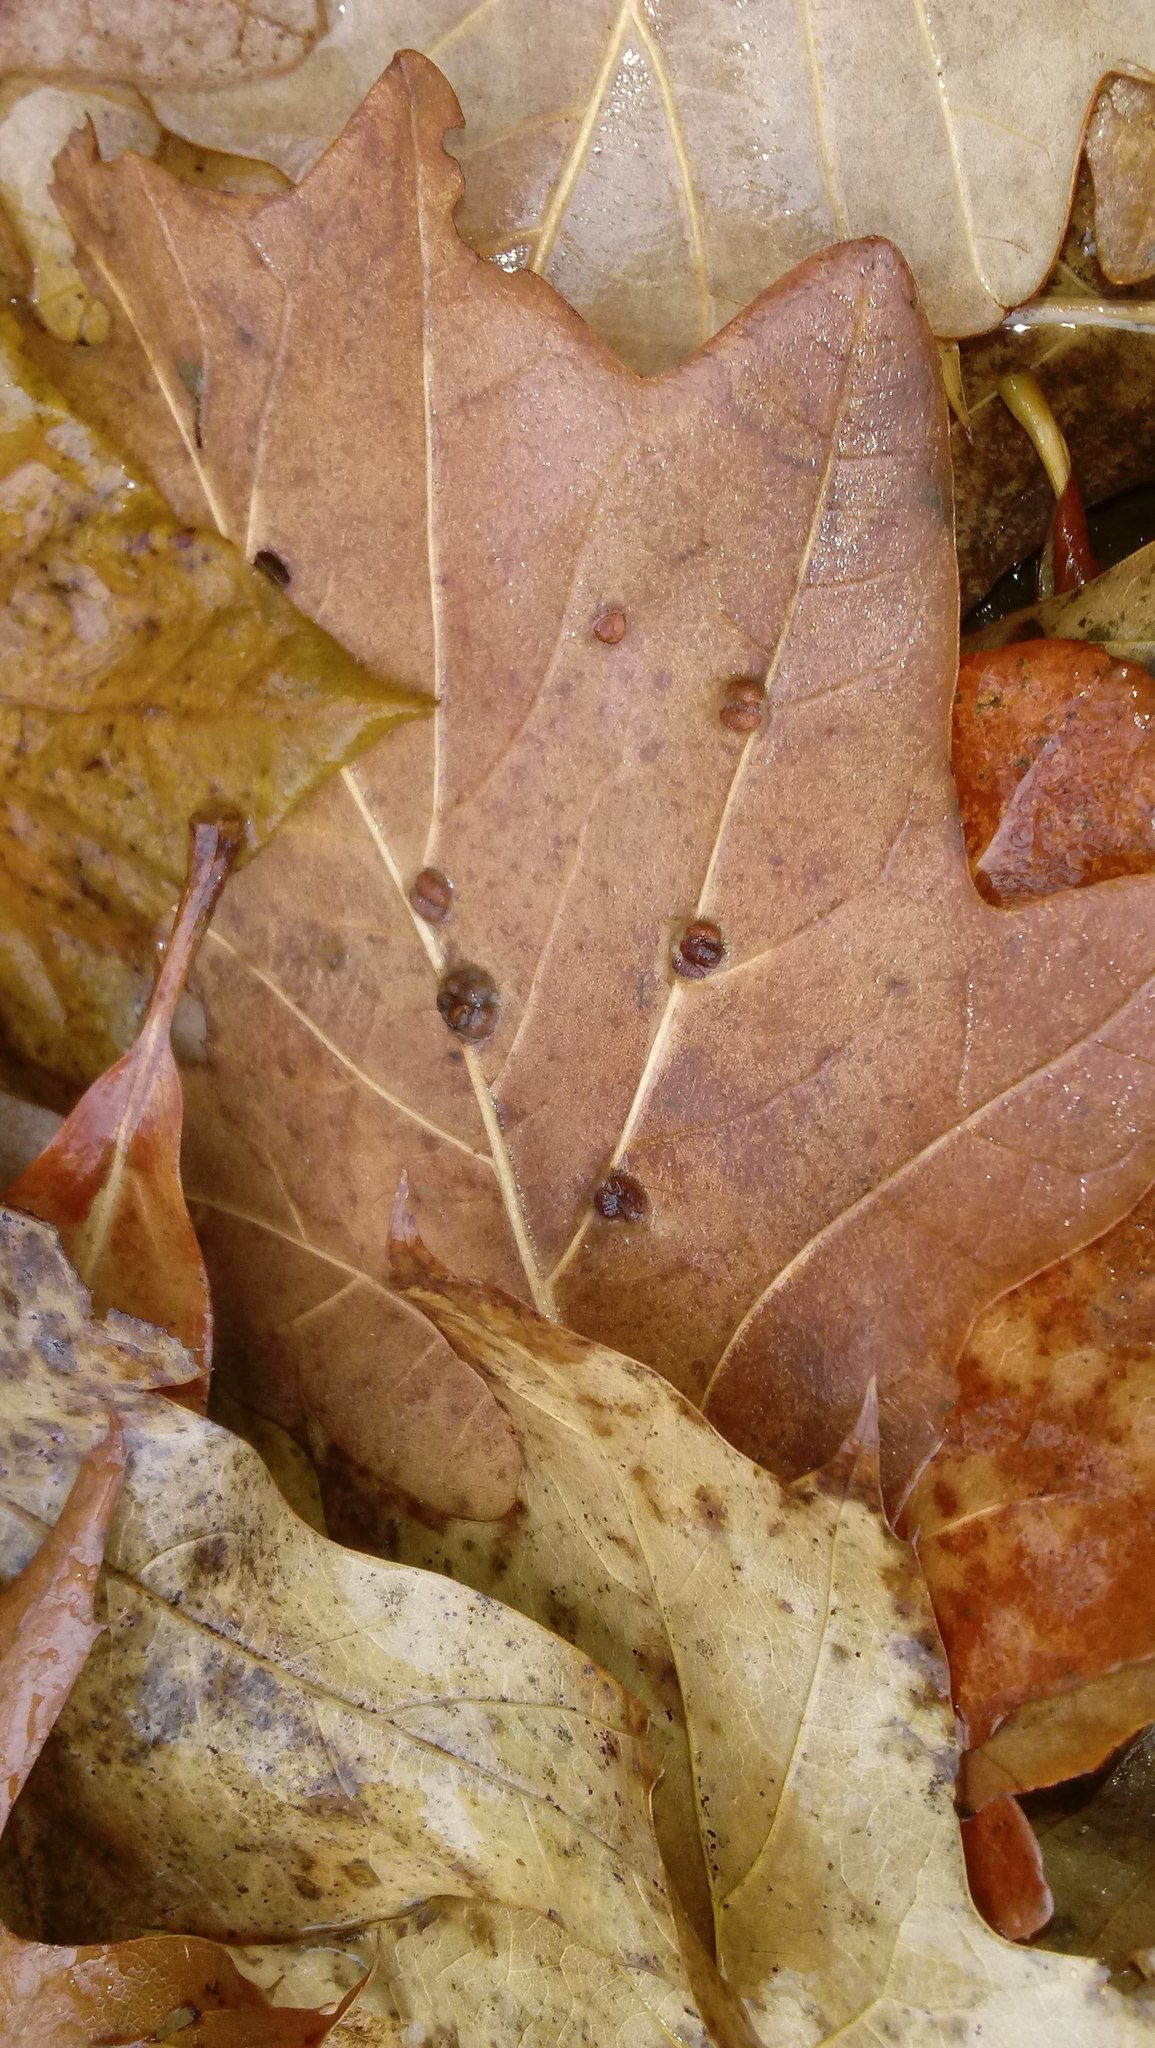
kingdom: Animalia
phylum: Arthropoda
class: Insecta
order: Hymenoptera
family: Cynipidae
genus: Andricus
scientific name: Andricus Druon ignotum
